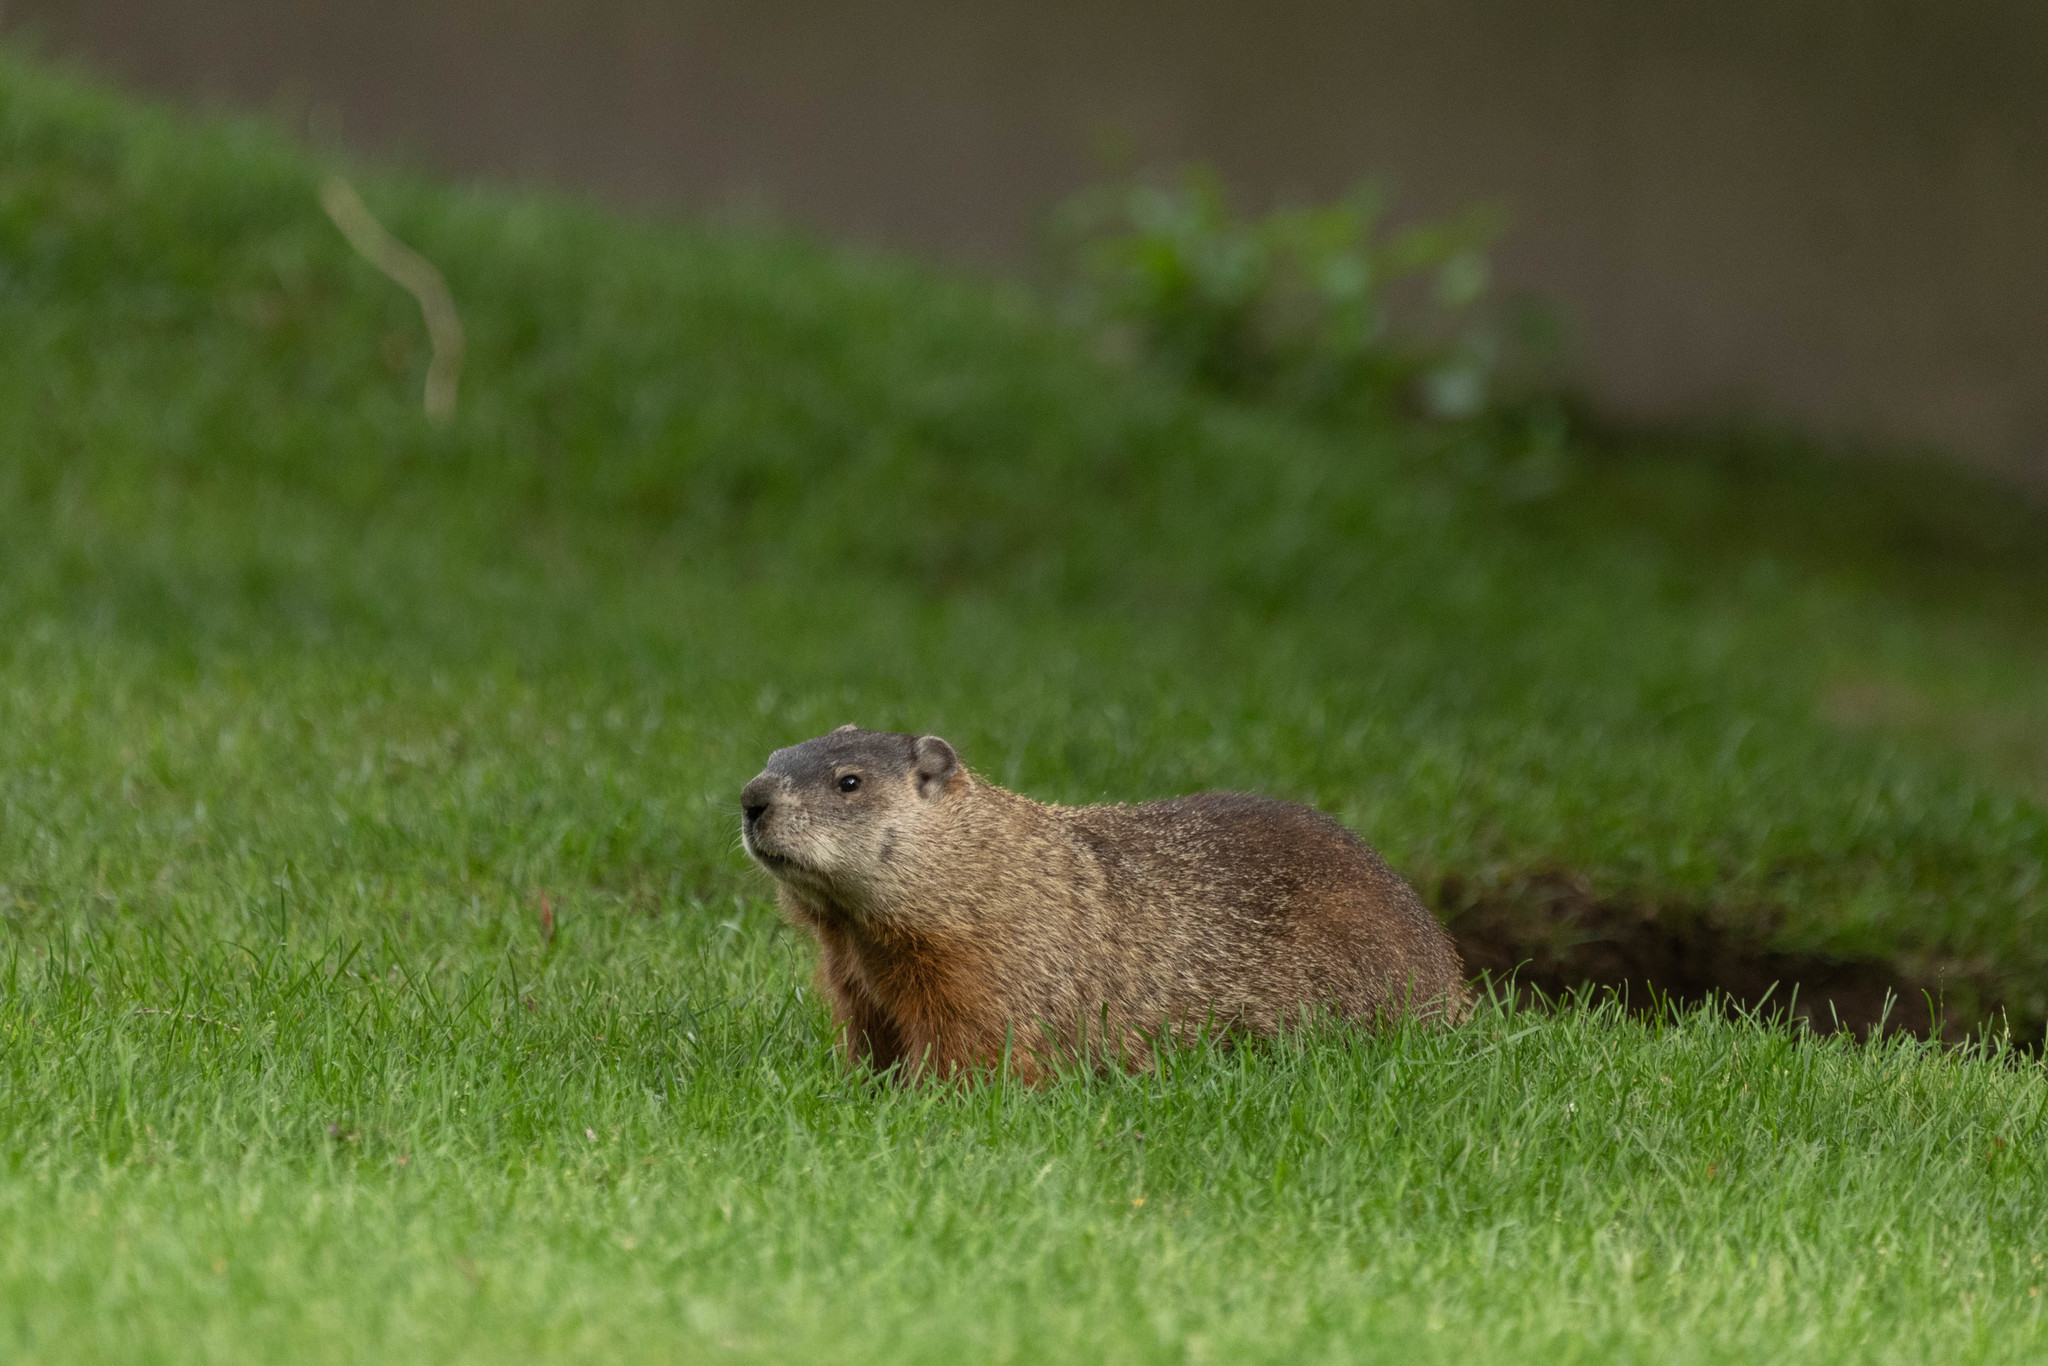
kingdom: Animalia
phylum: Chordata
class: Mammalia
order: Rodentia
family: Sciuridae
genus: Marmota
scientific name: Marmota monax
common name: Groundhog
